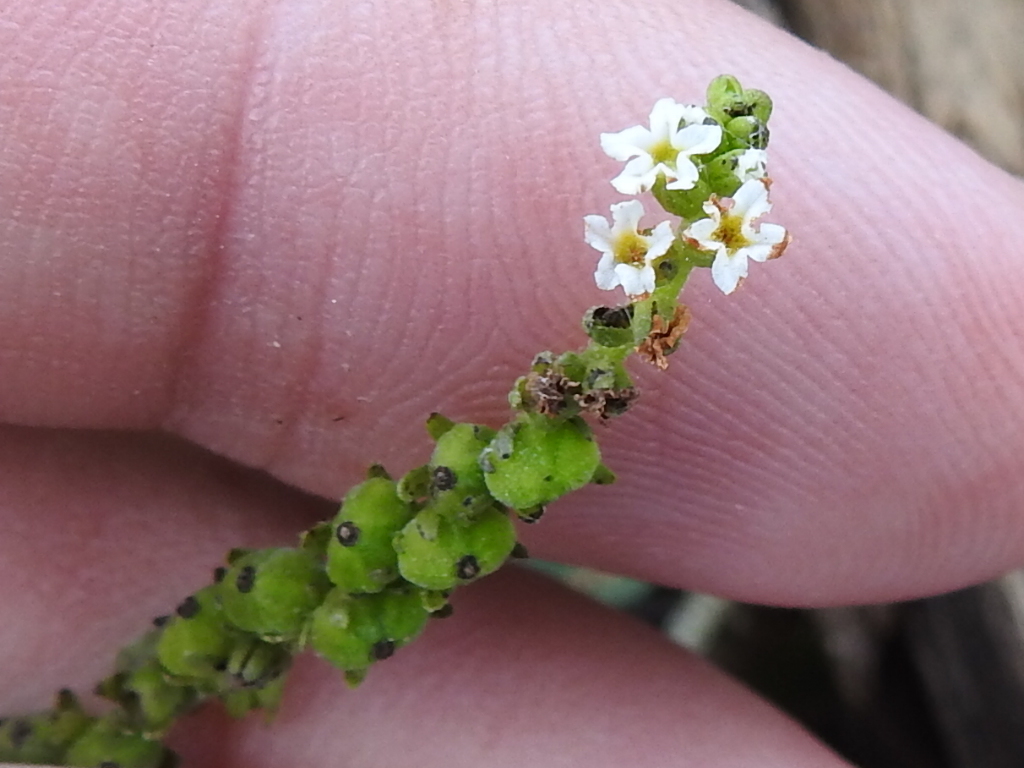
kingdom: Plantae
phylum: Tracheophyta
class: Magnoliopsida
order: Boraginales
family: Heliotropiaceae
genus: Heliotropium
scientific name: Heliotropium angiospermum
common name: Eye bright
